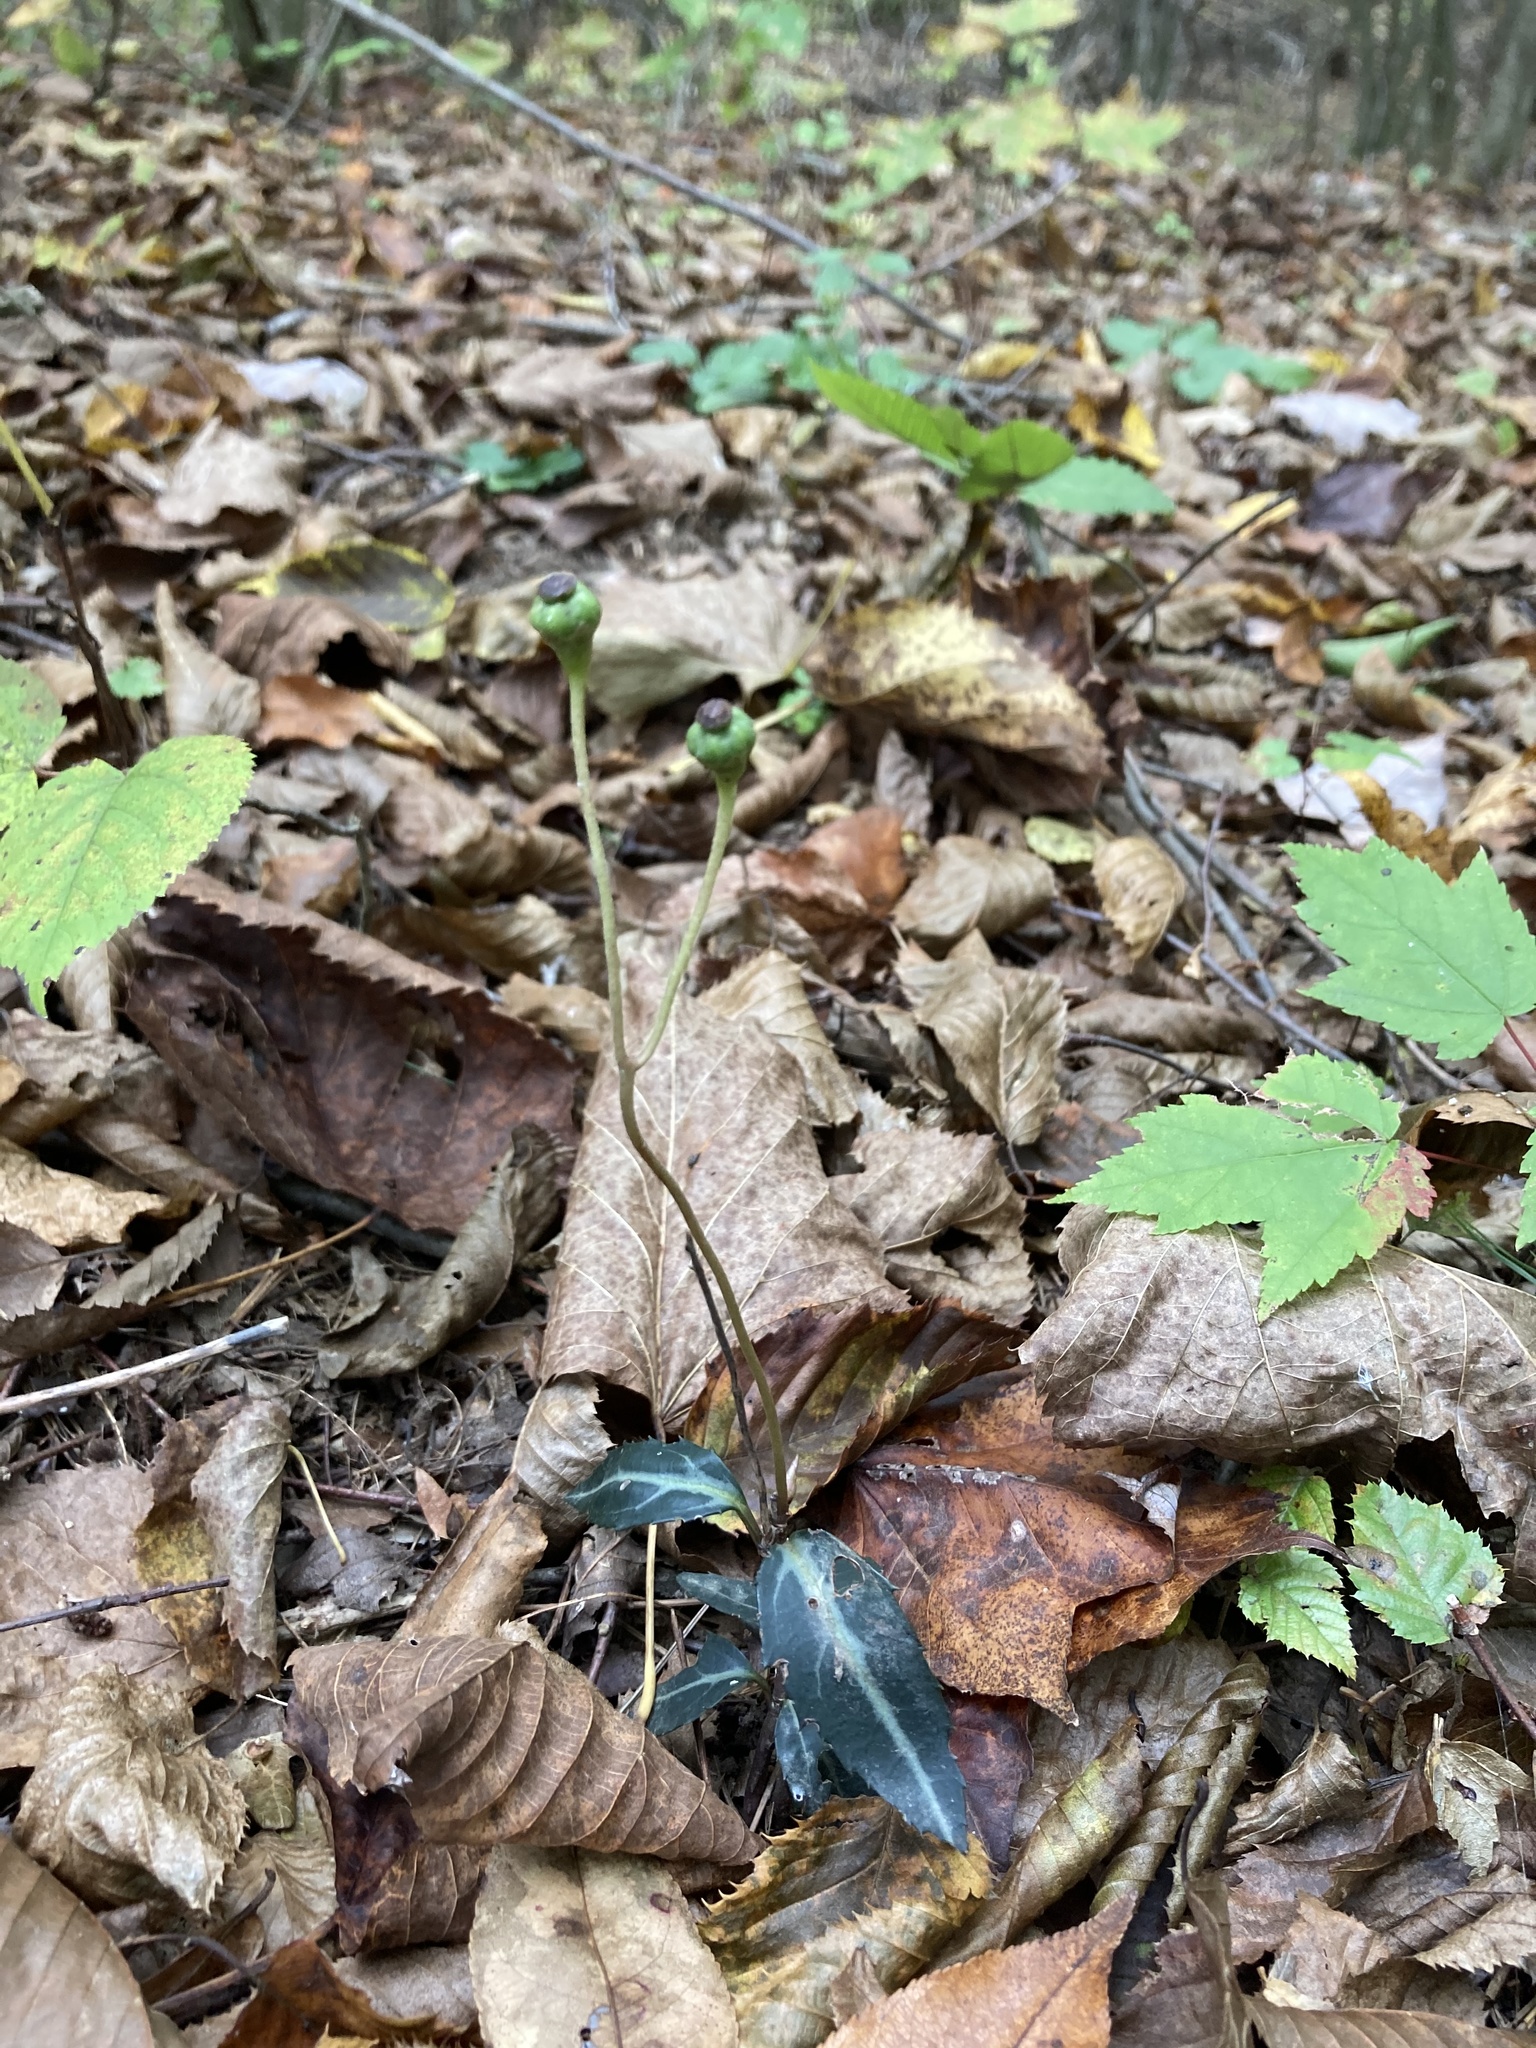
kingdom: Plantae
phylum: Tracheophyta
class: Magnoliopsida
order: Ericales
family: Ericaceae
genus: Chimaphila
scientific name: Chimaphila maculata
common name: Spotted pipsissewa
